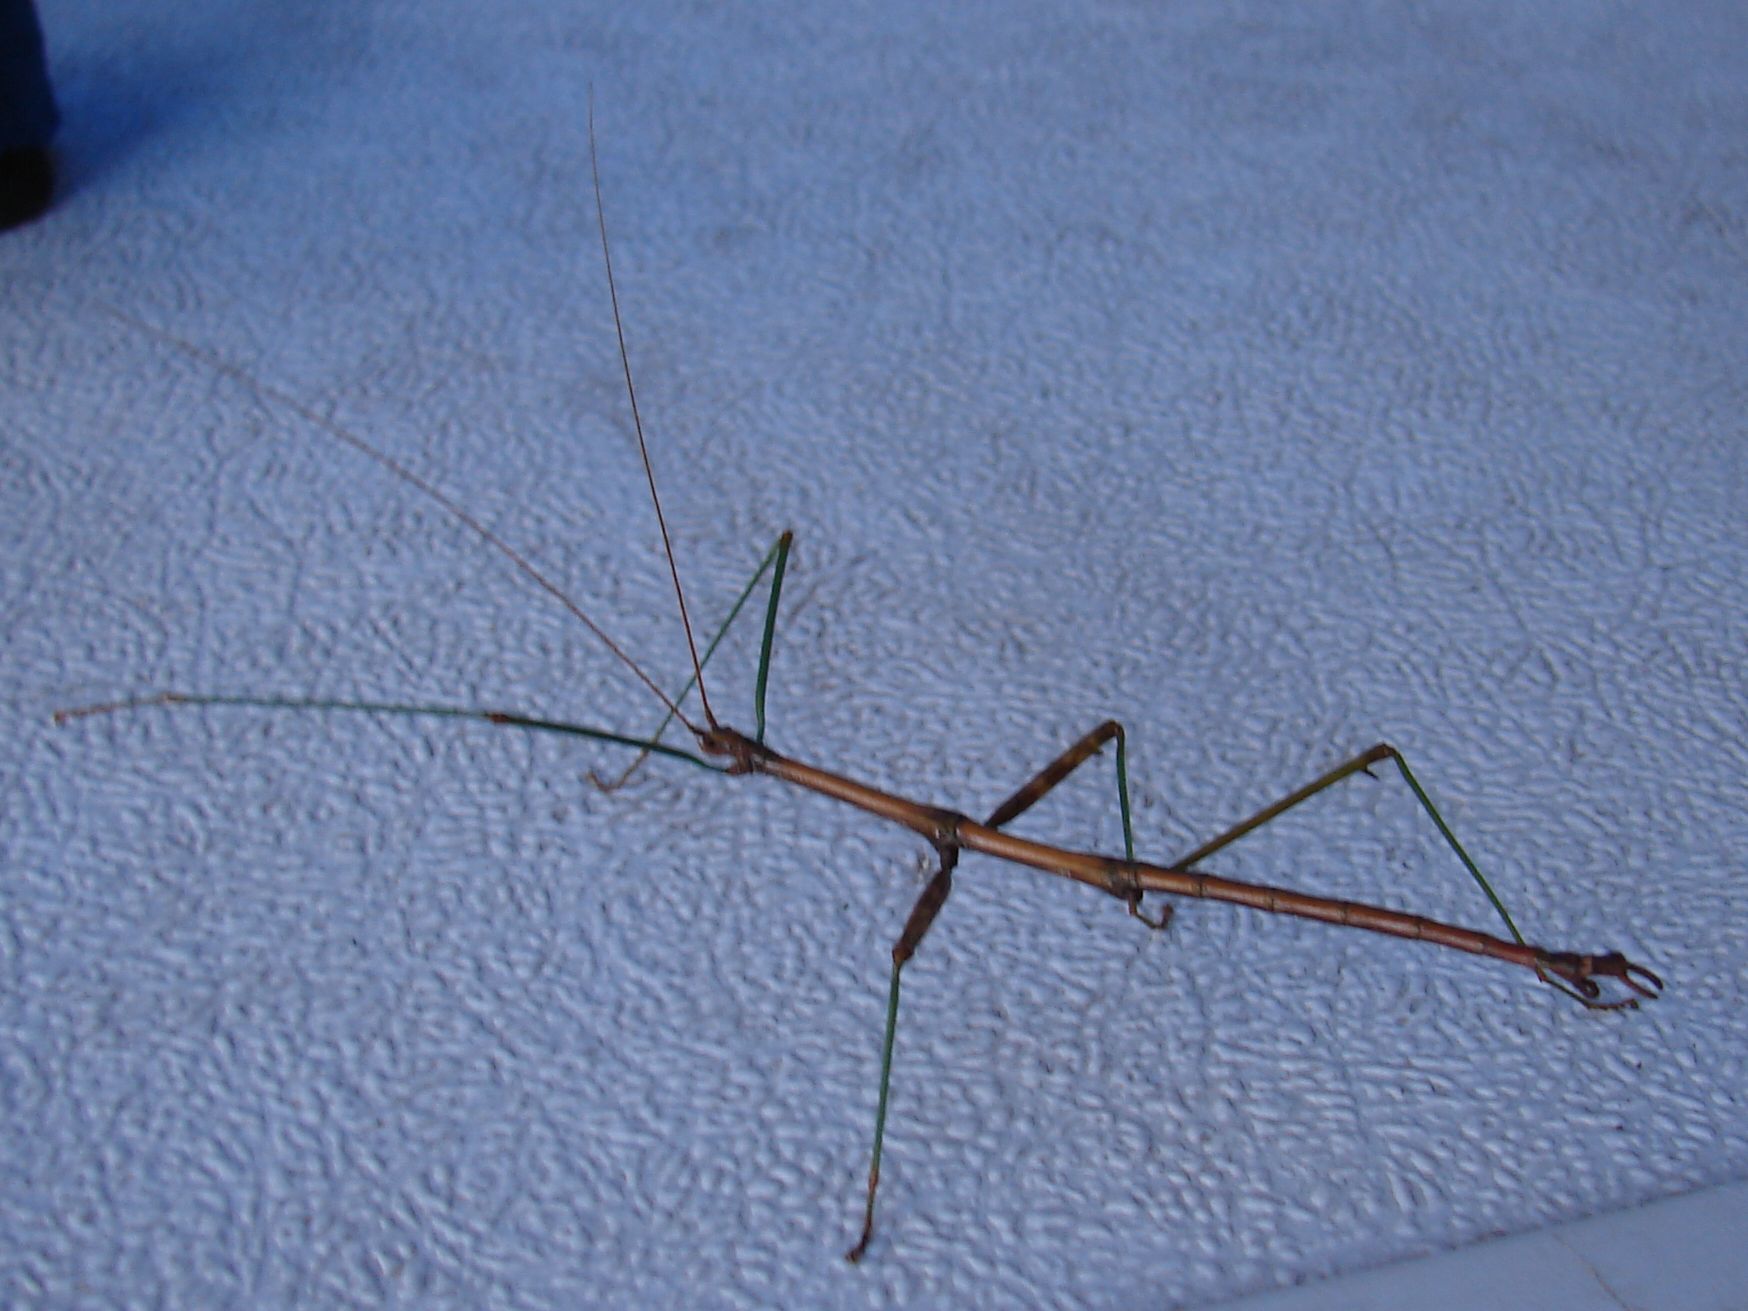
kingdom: Animalia
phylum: Arthropoda
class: Insecta
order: Phasmida
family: Diapheromeridae
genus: Diapheromera
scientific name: Diapheromera femorata
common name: Common american walkingstick
